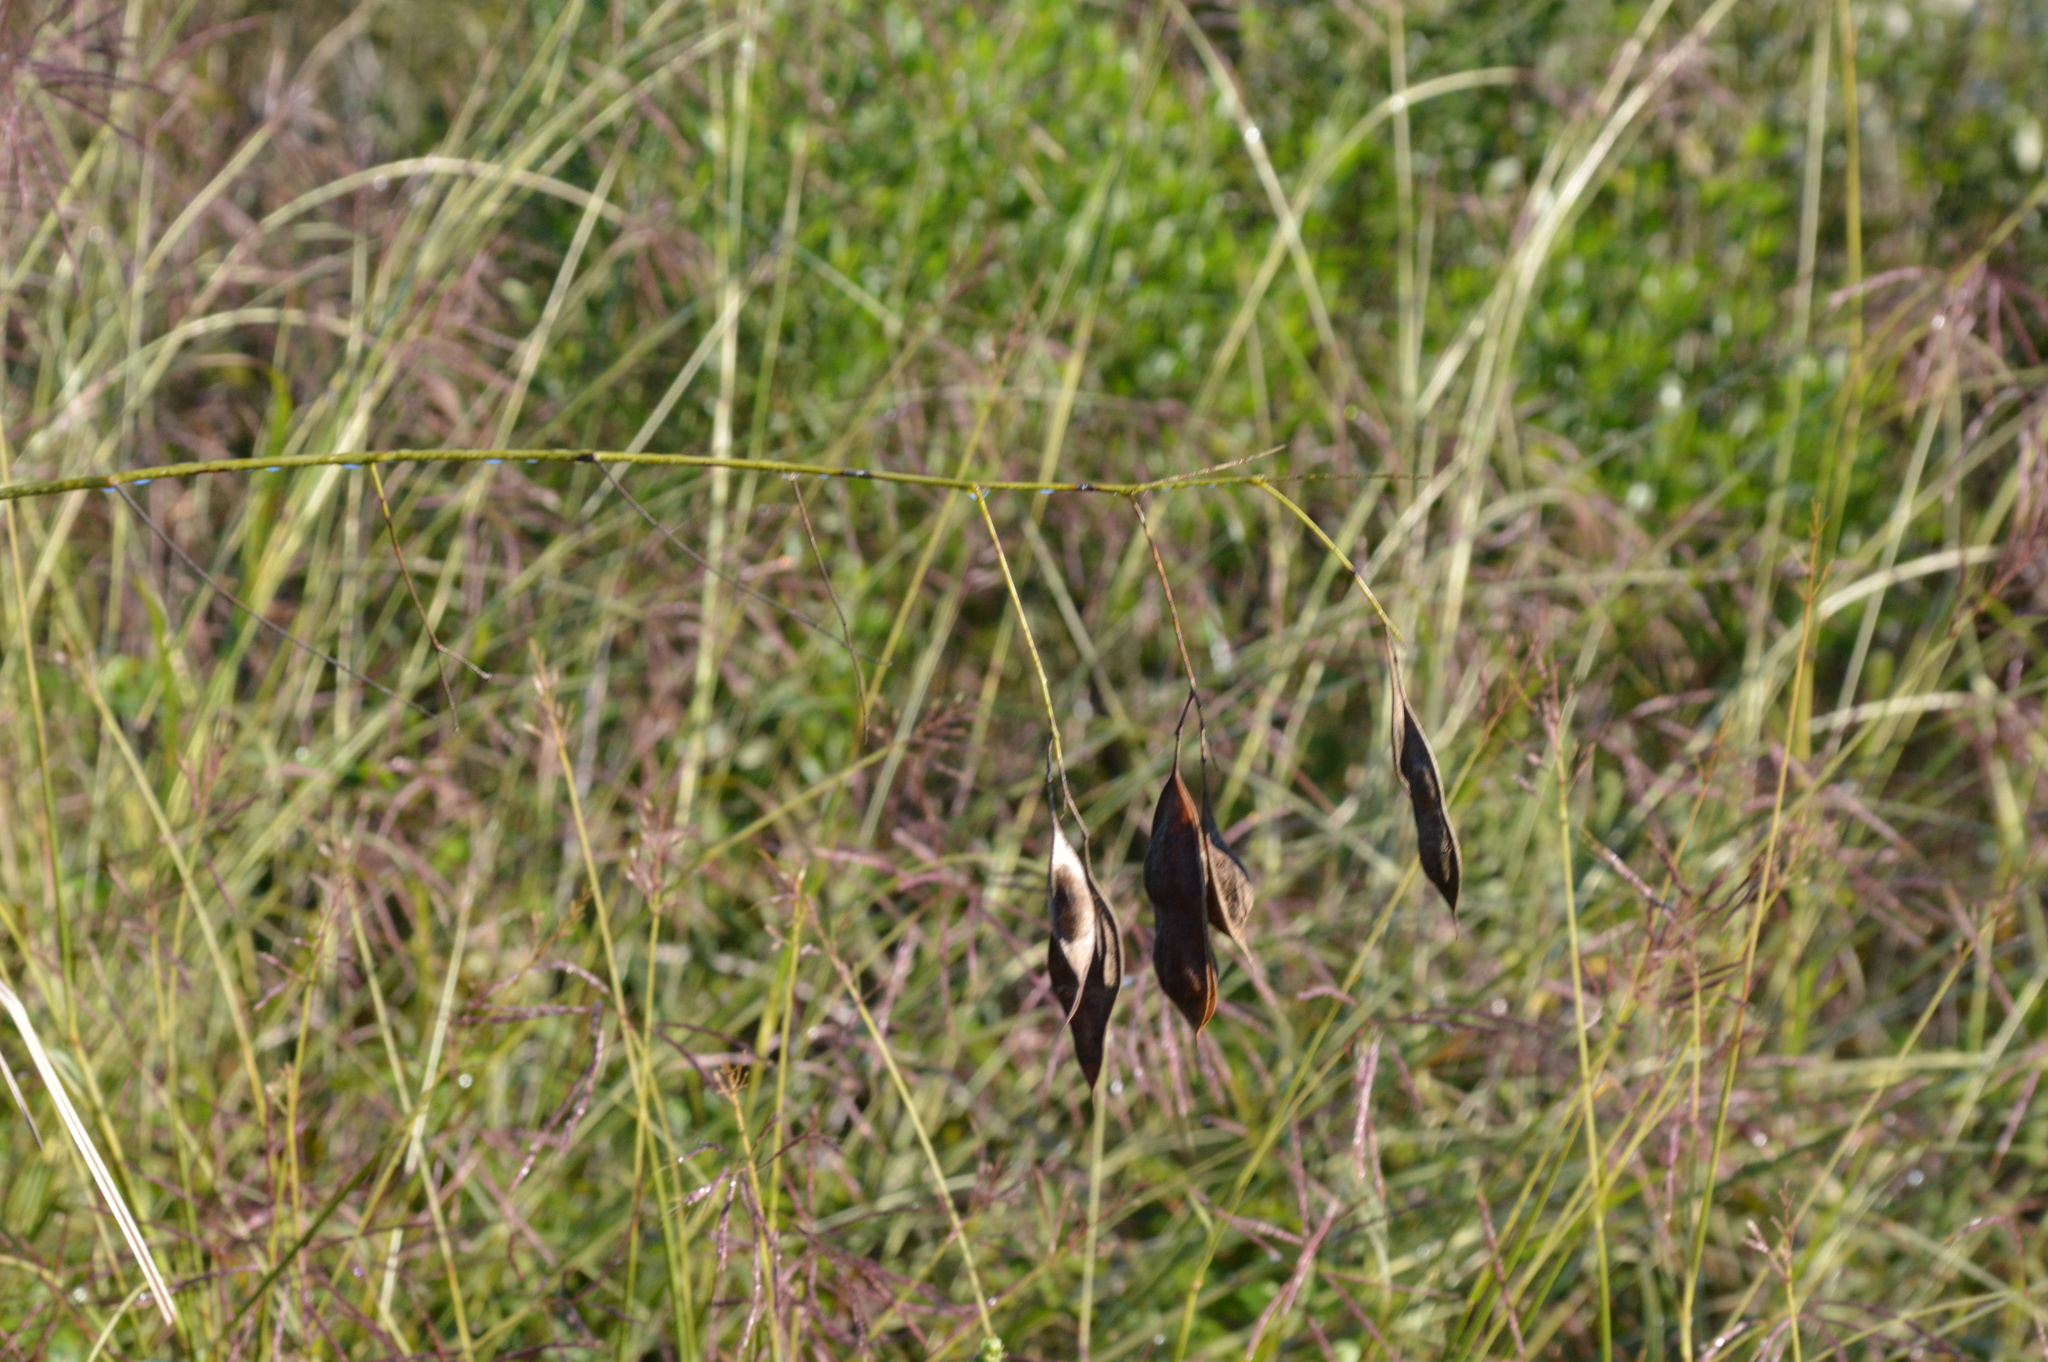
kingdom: Plantae
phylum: Tracheophyta
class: Magnoliopsida
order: Fabales
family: Fabaceae
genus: Sesbania
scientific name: Sesbania vesicaria
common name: Bagpod
